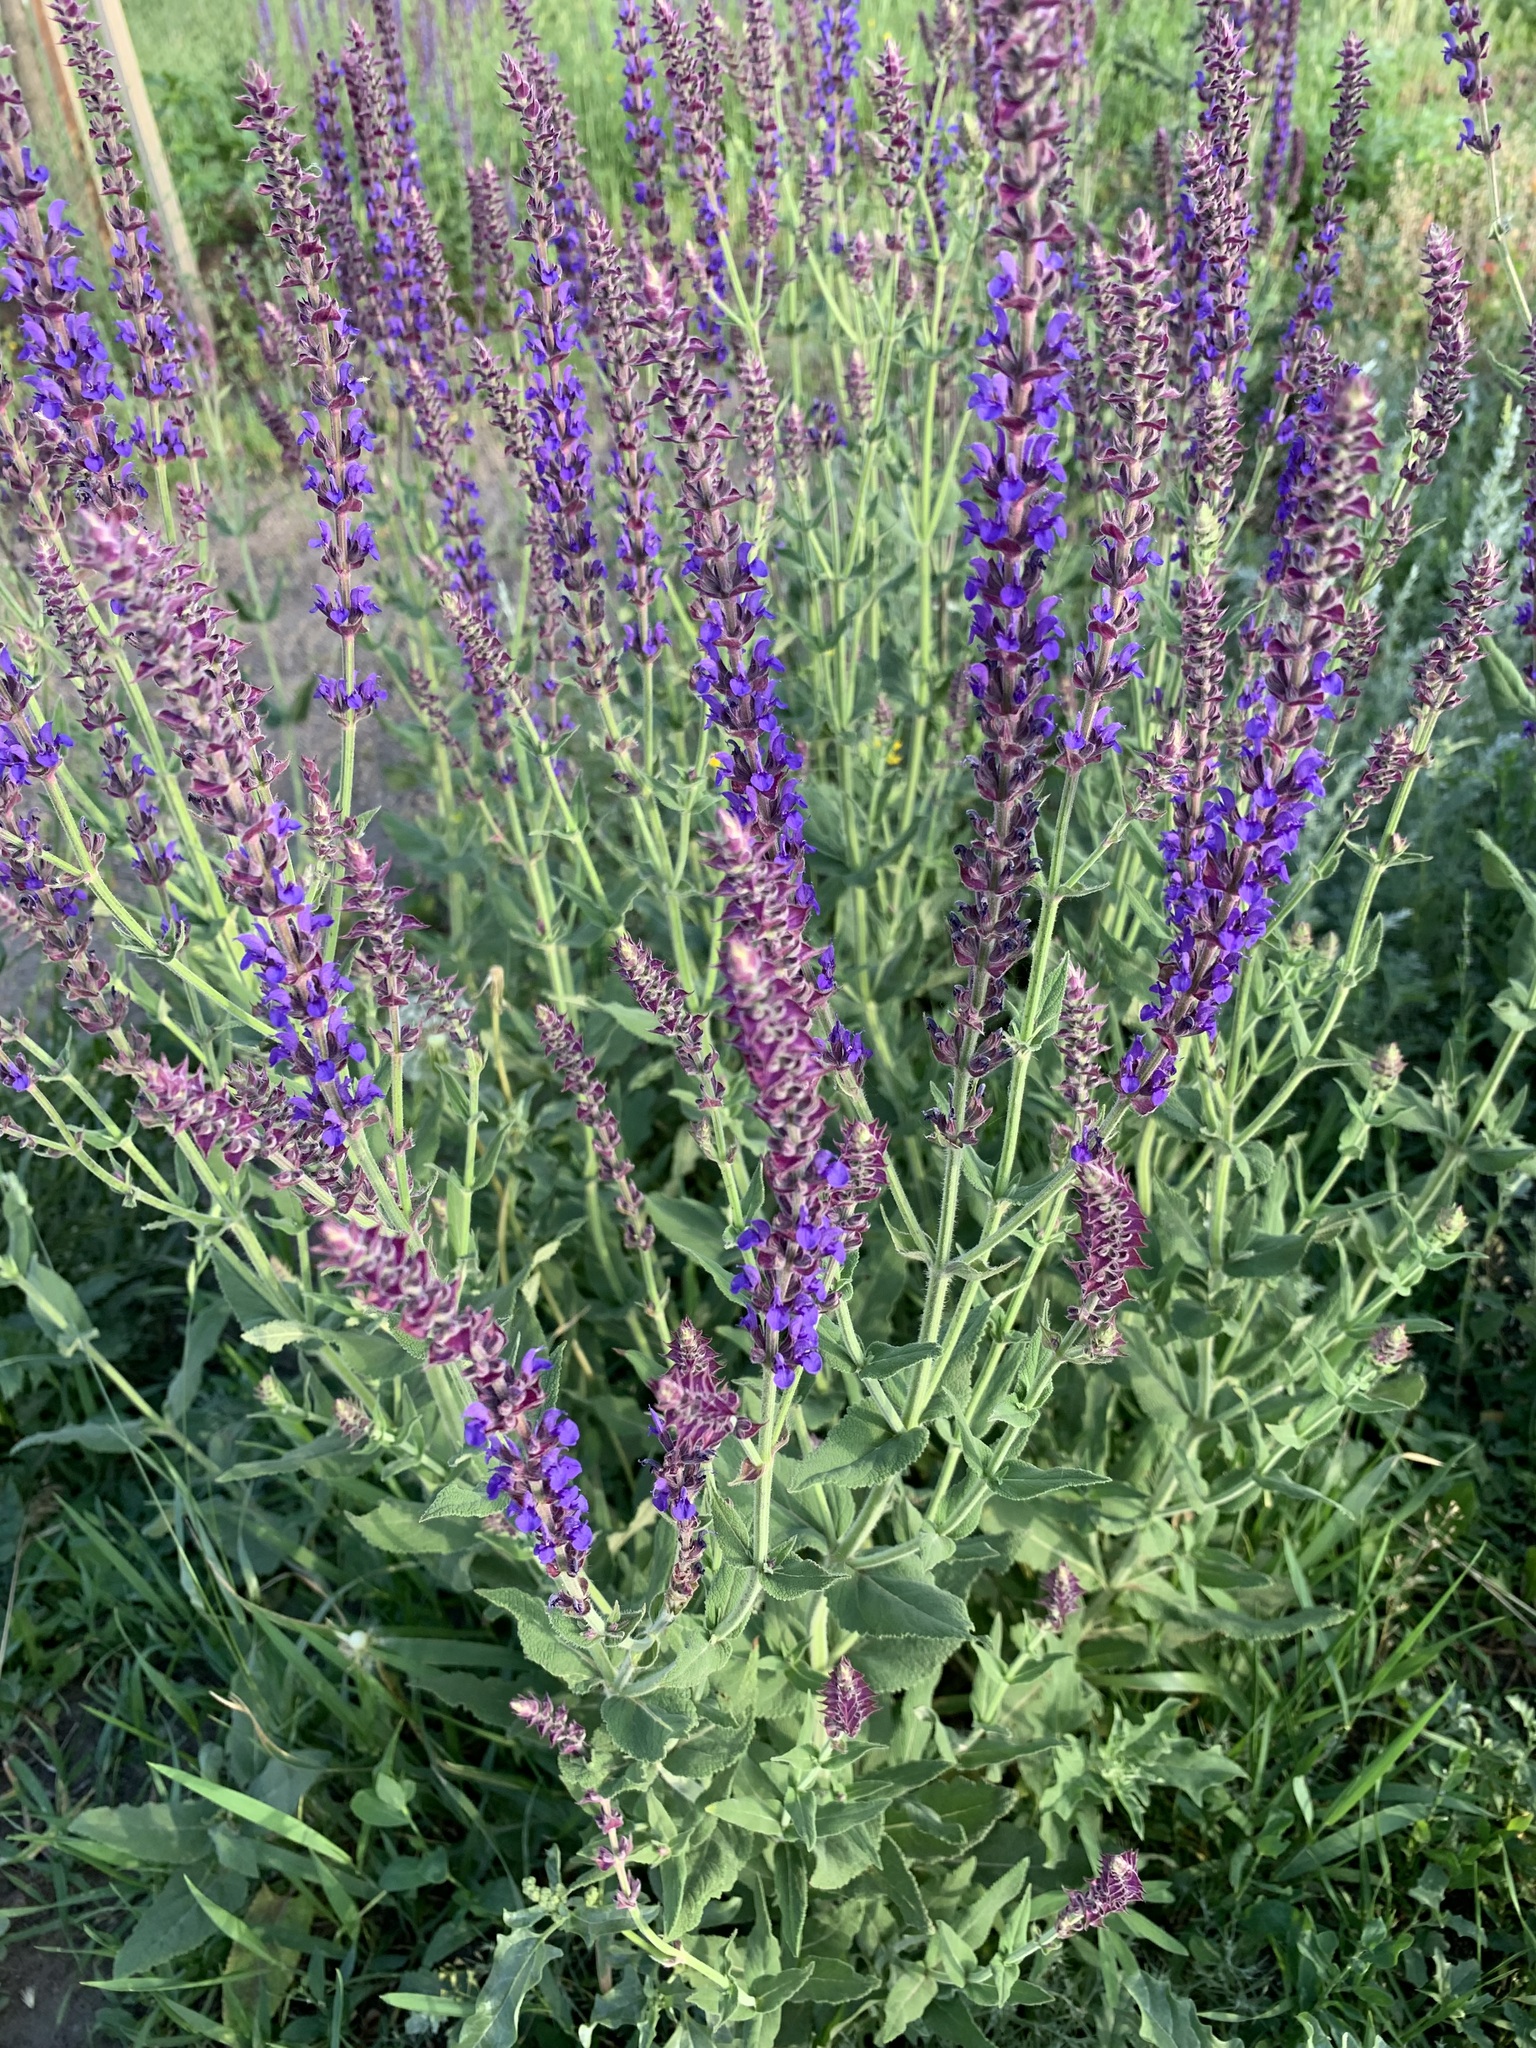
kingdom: Plantae
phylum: Tracheophyta
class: Magnoliopsida
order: Lamiales
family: Lamiaceae
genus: Salvia
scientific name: Salvia nemorosa
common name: Balkan clary
